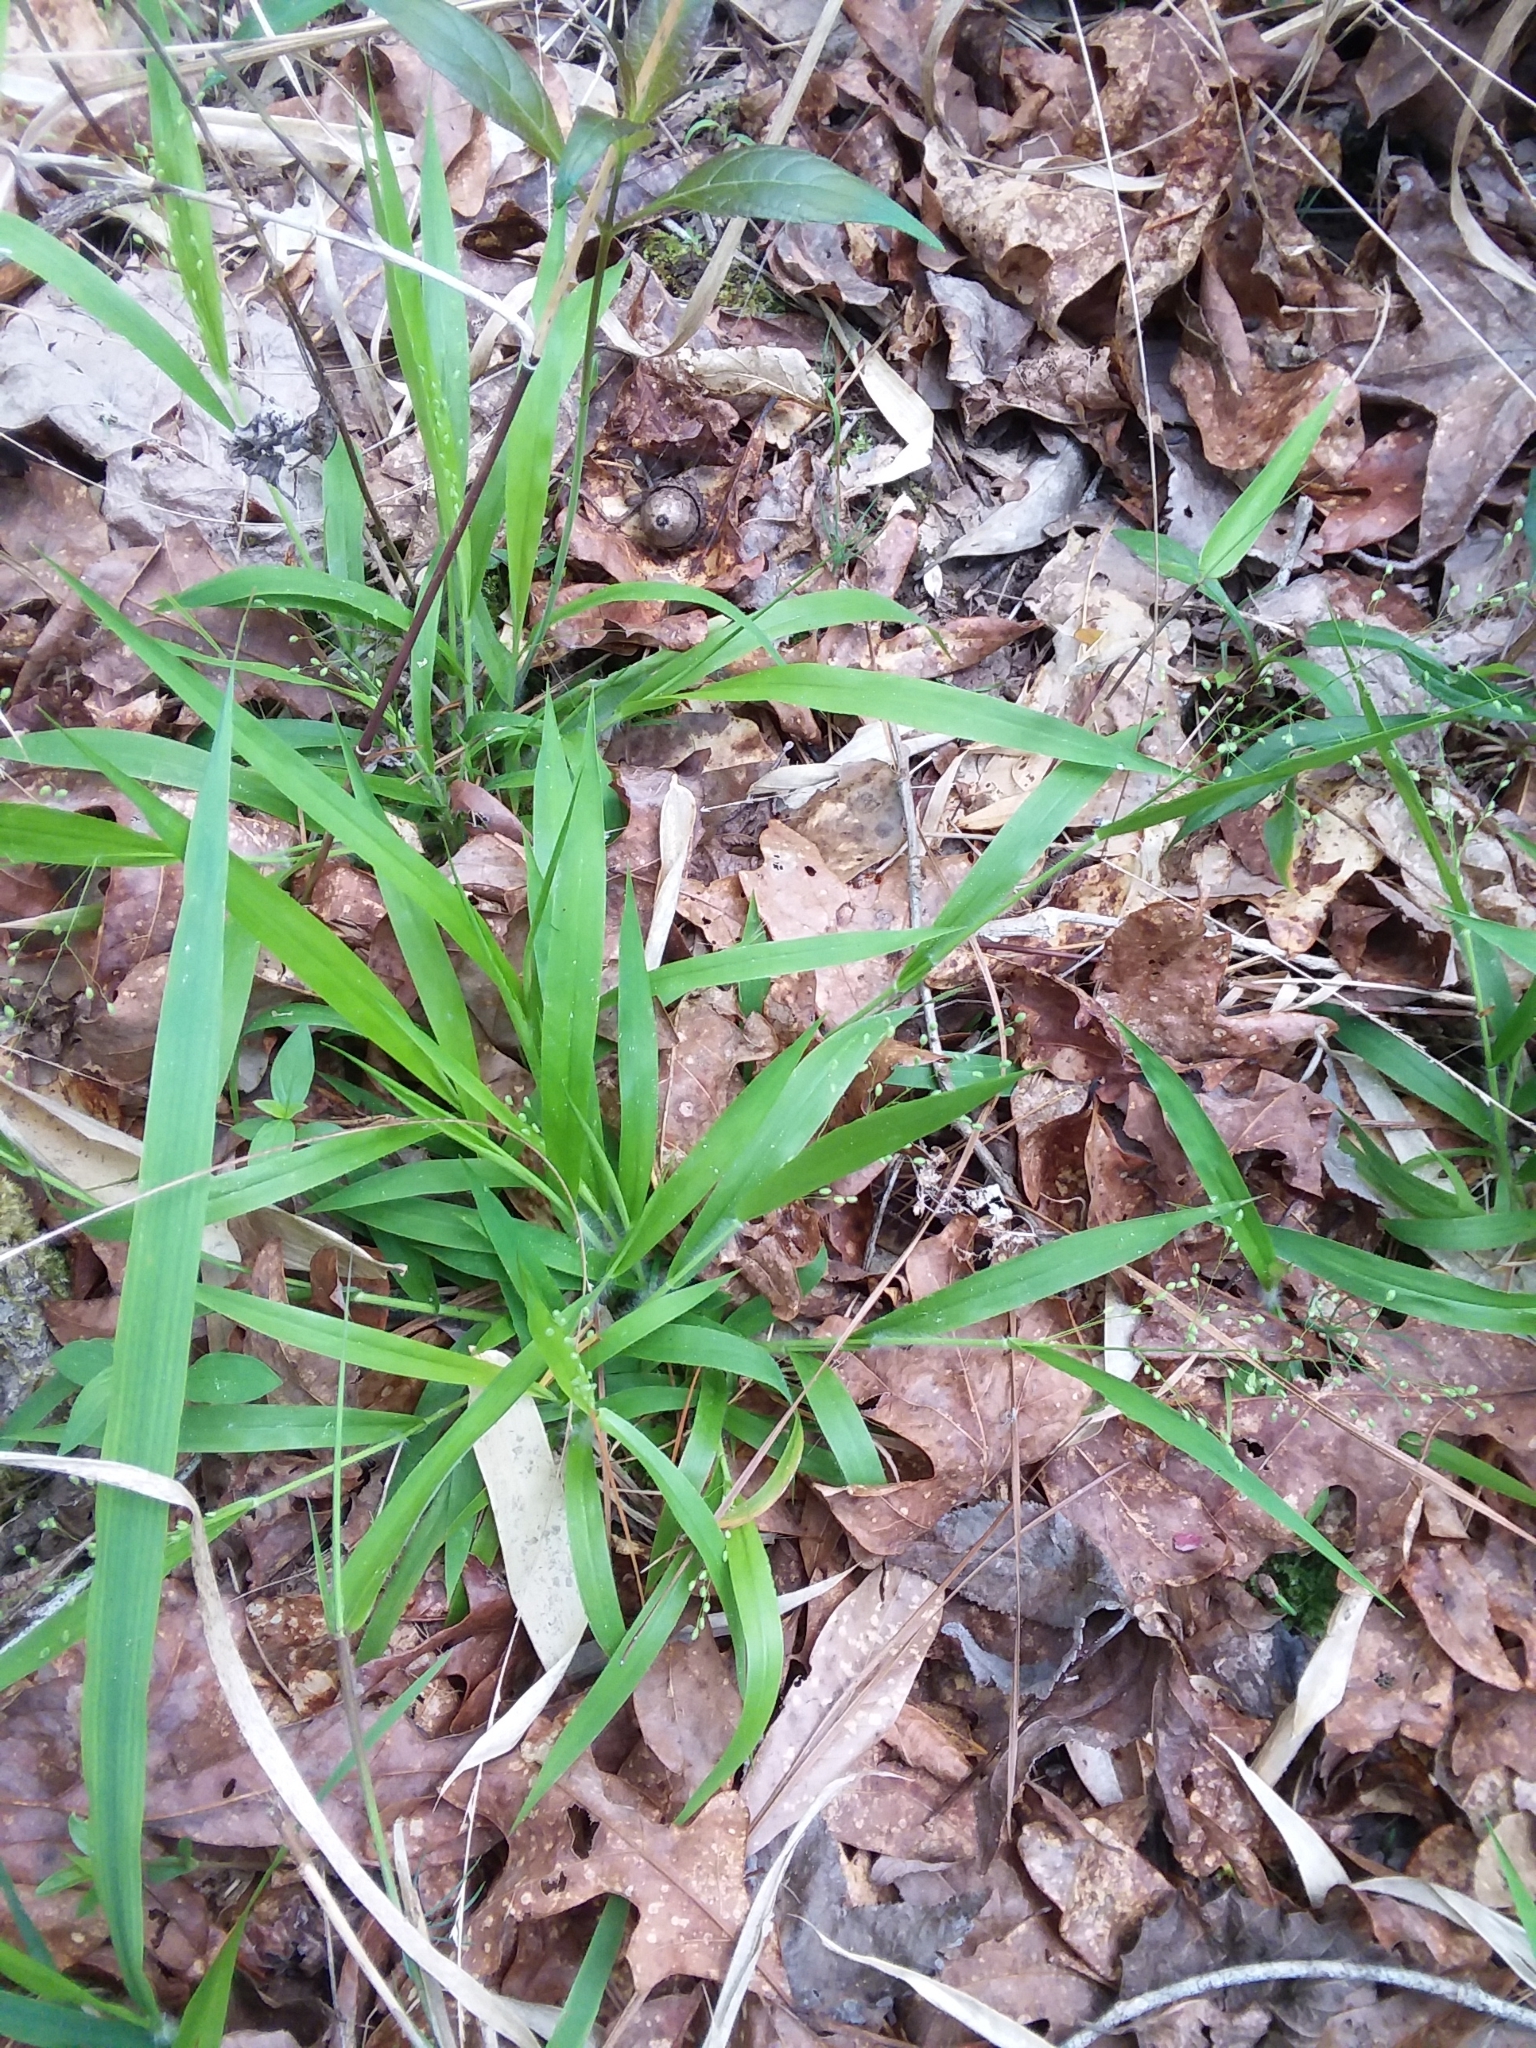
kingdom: Plantae
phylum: Tracheophyta
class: Liliopsida
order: Poales
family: Poaceae
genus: Dichanthelium
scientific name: Dichanthelium laxiflorum
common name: Soft-tuft panic grass
